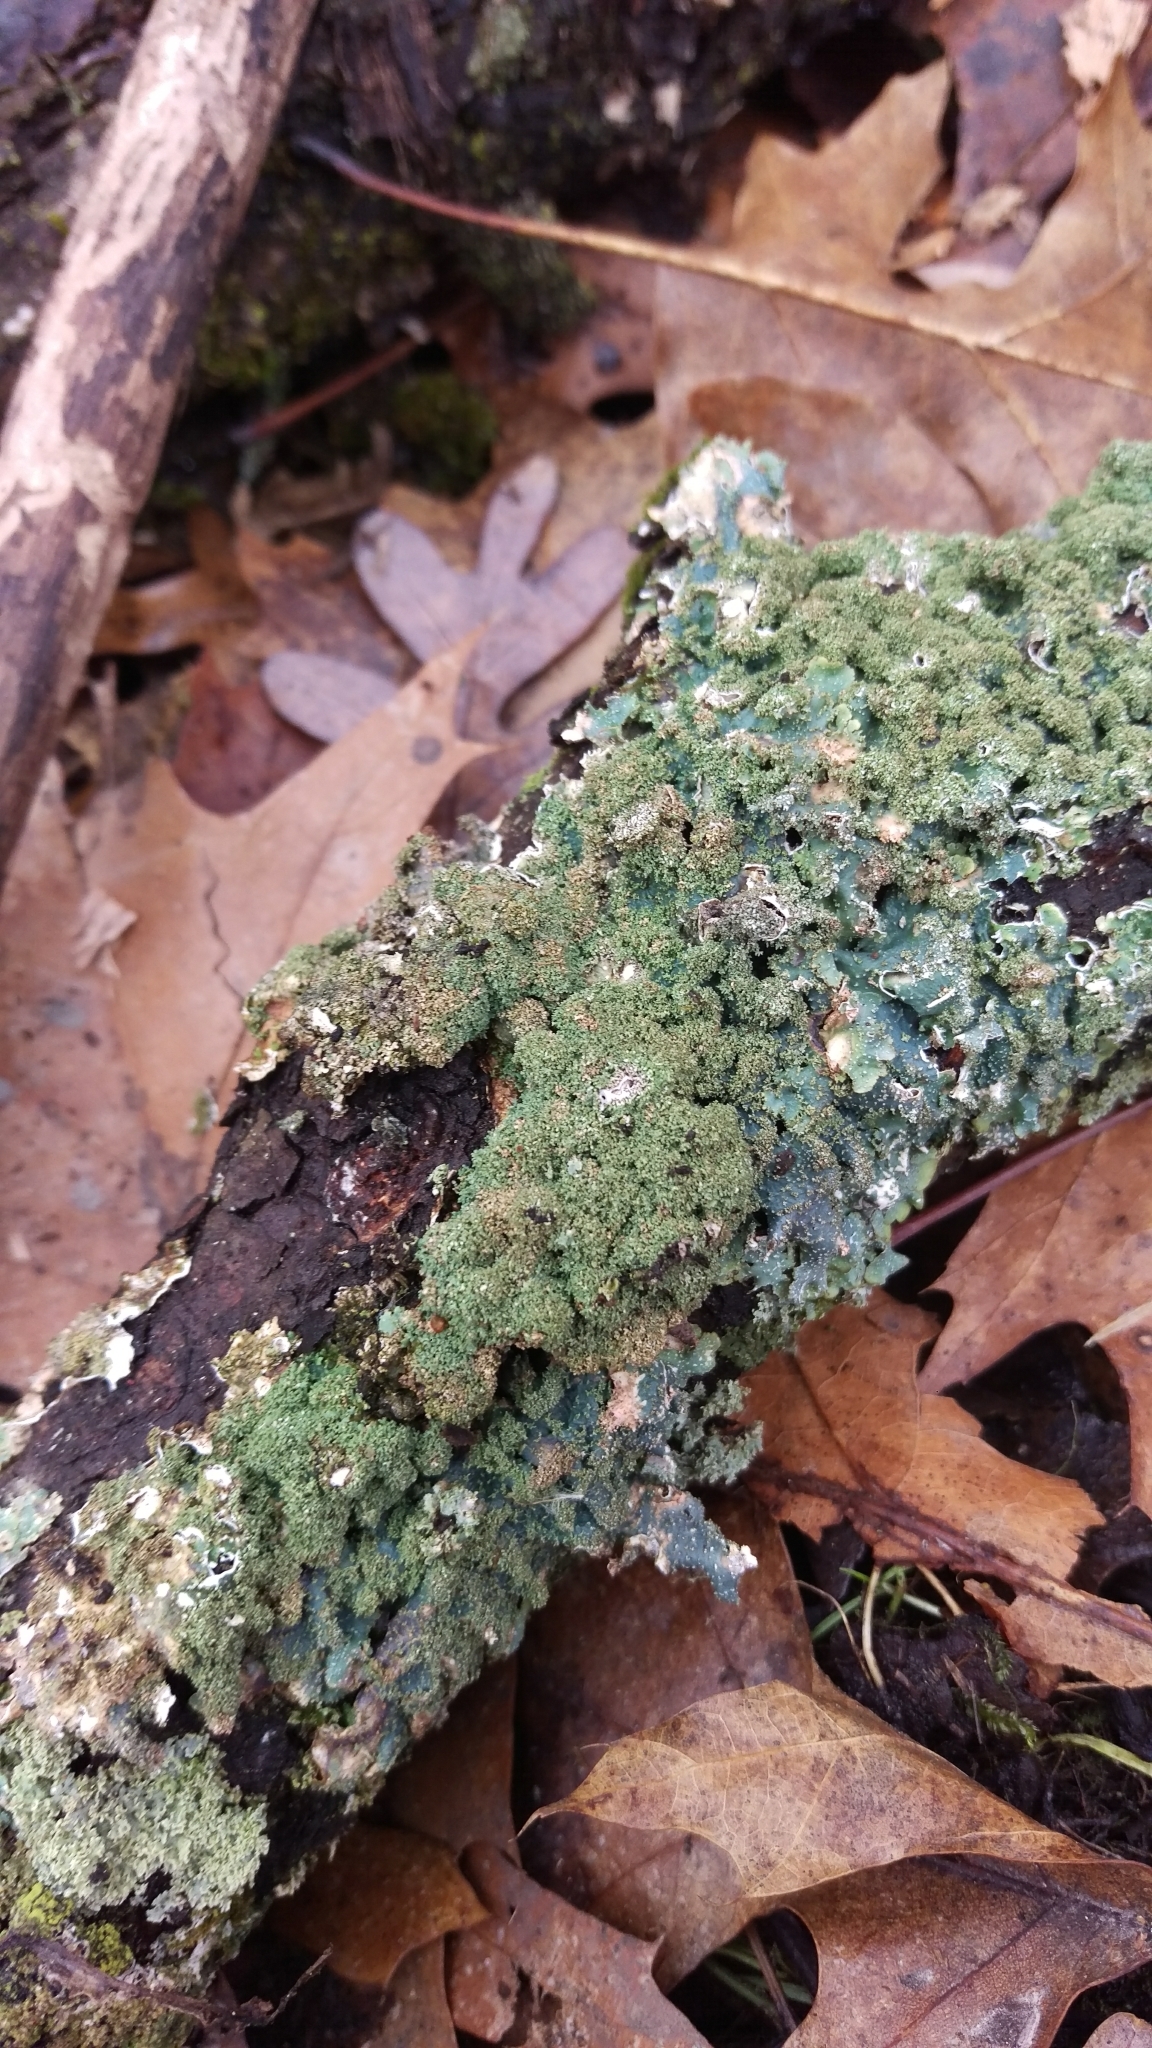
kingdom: Fungi
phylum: Ascomycota
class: Lecanoromycetes
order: Lecanorales
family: Parmeliaceae
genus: Punctelia
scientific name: Punctelia rudecta
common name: Rough speckled shield lichen
